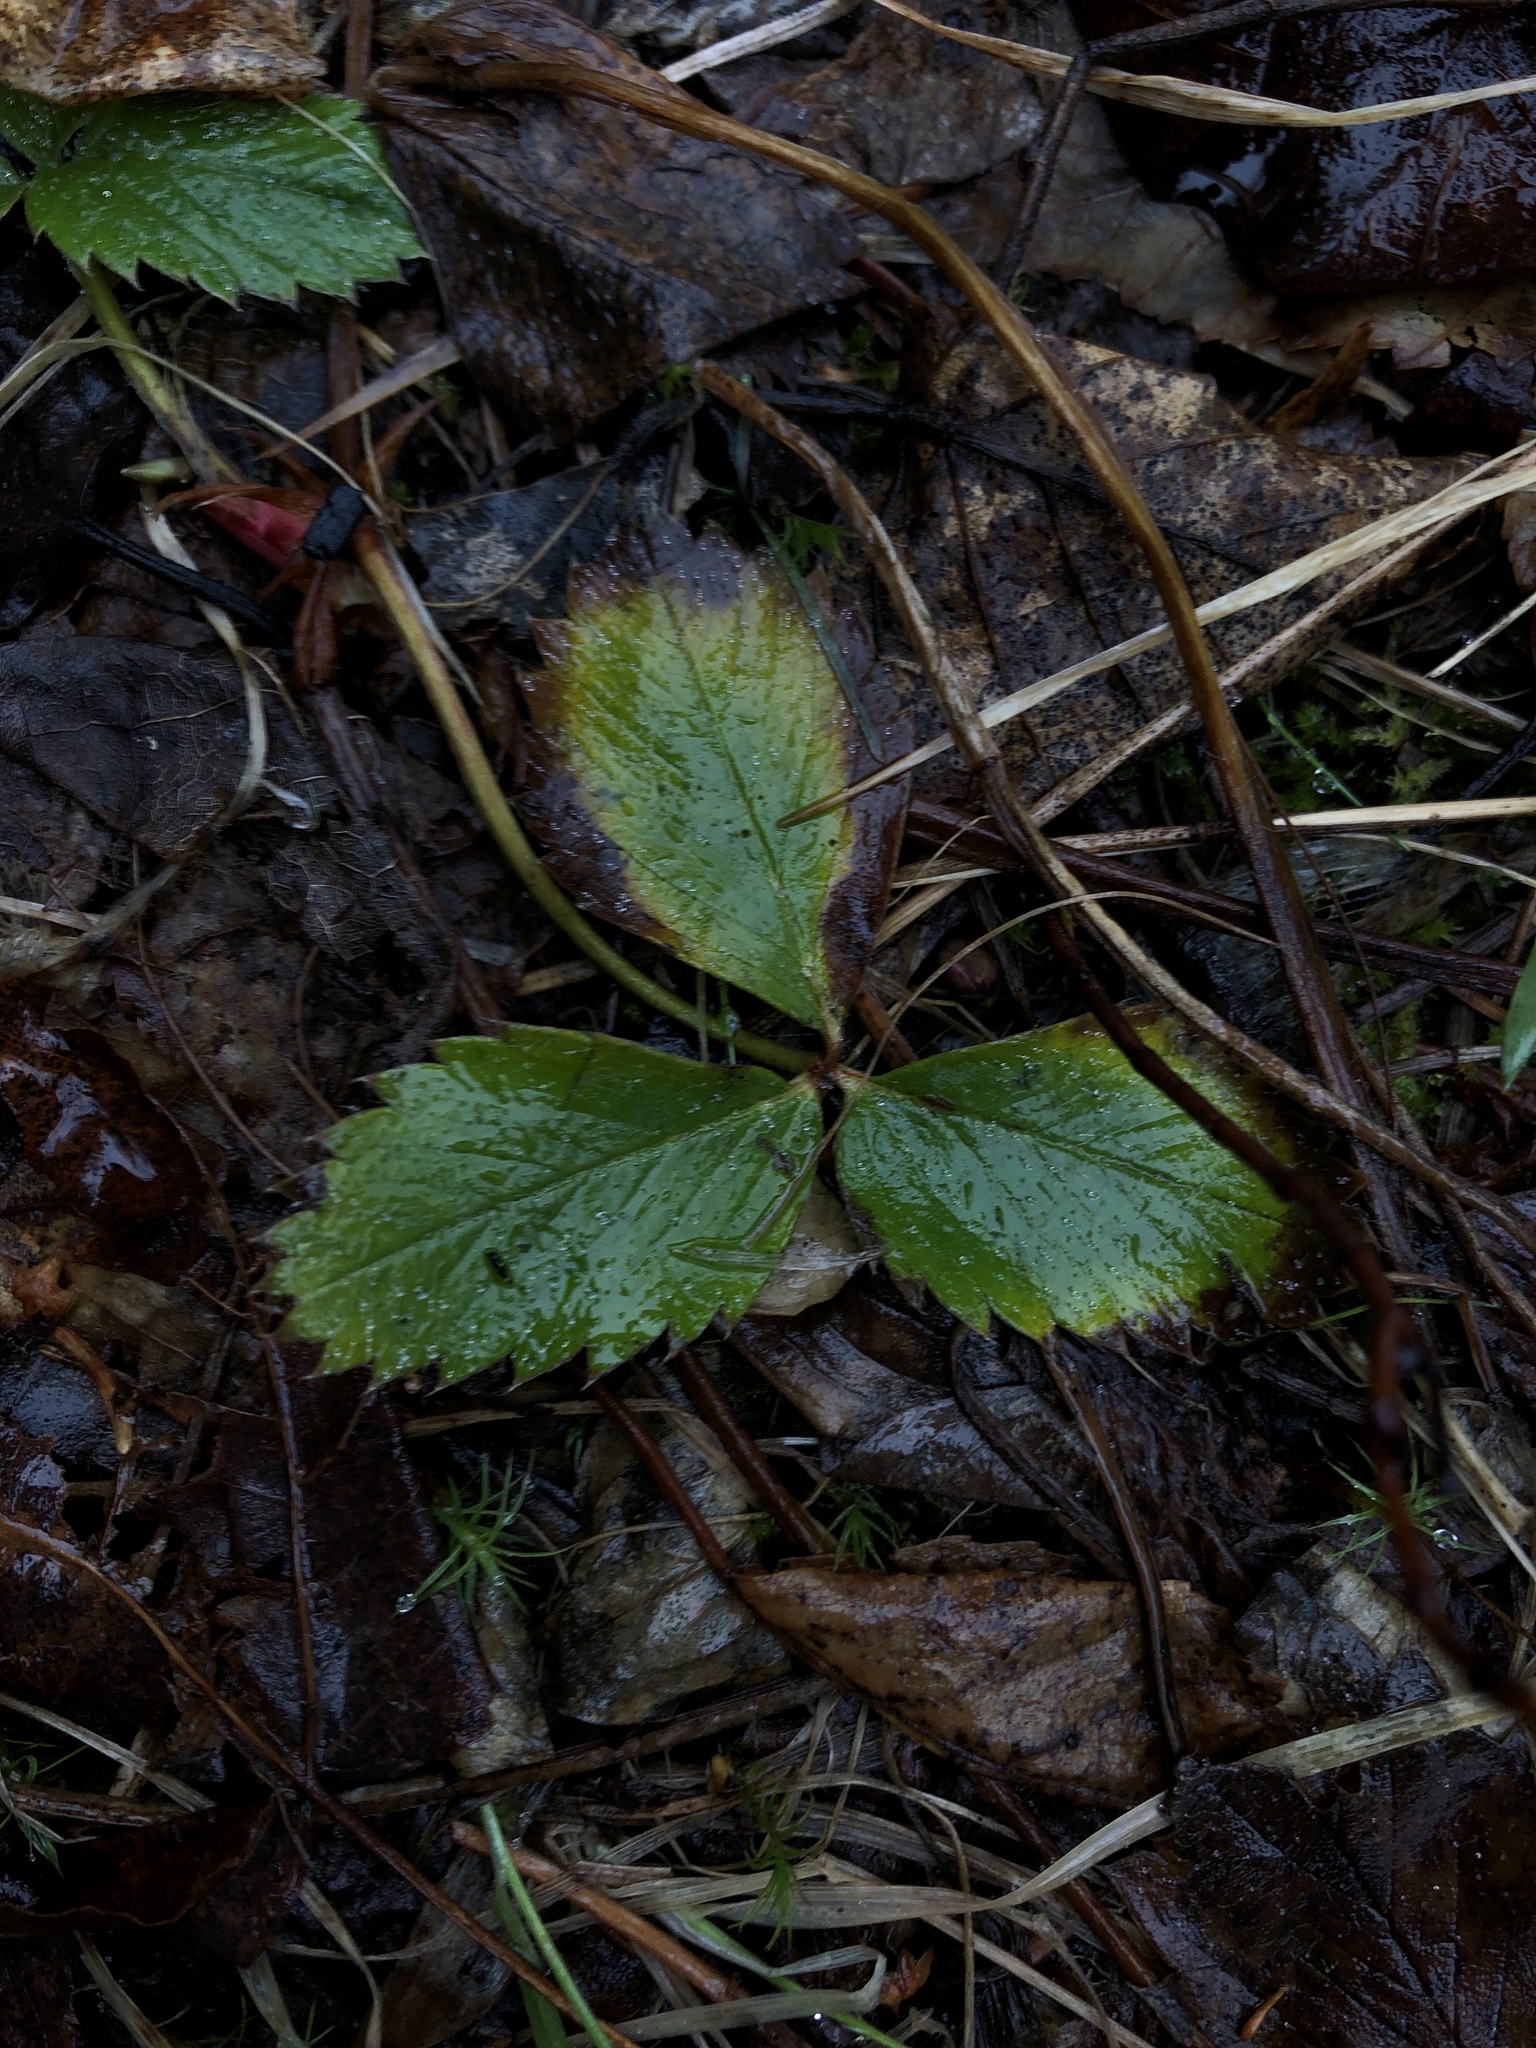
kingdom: Plantae
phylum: Tracheophyta
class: Magnoliopsida
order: Rosales
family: Rosaceae
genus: Fragaria
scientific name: Fragaria vesca
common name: Wild strawberry
